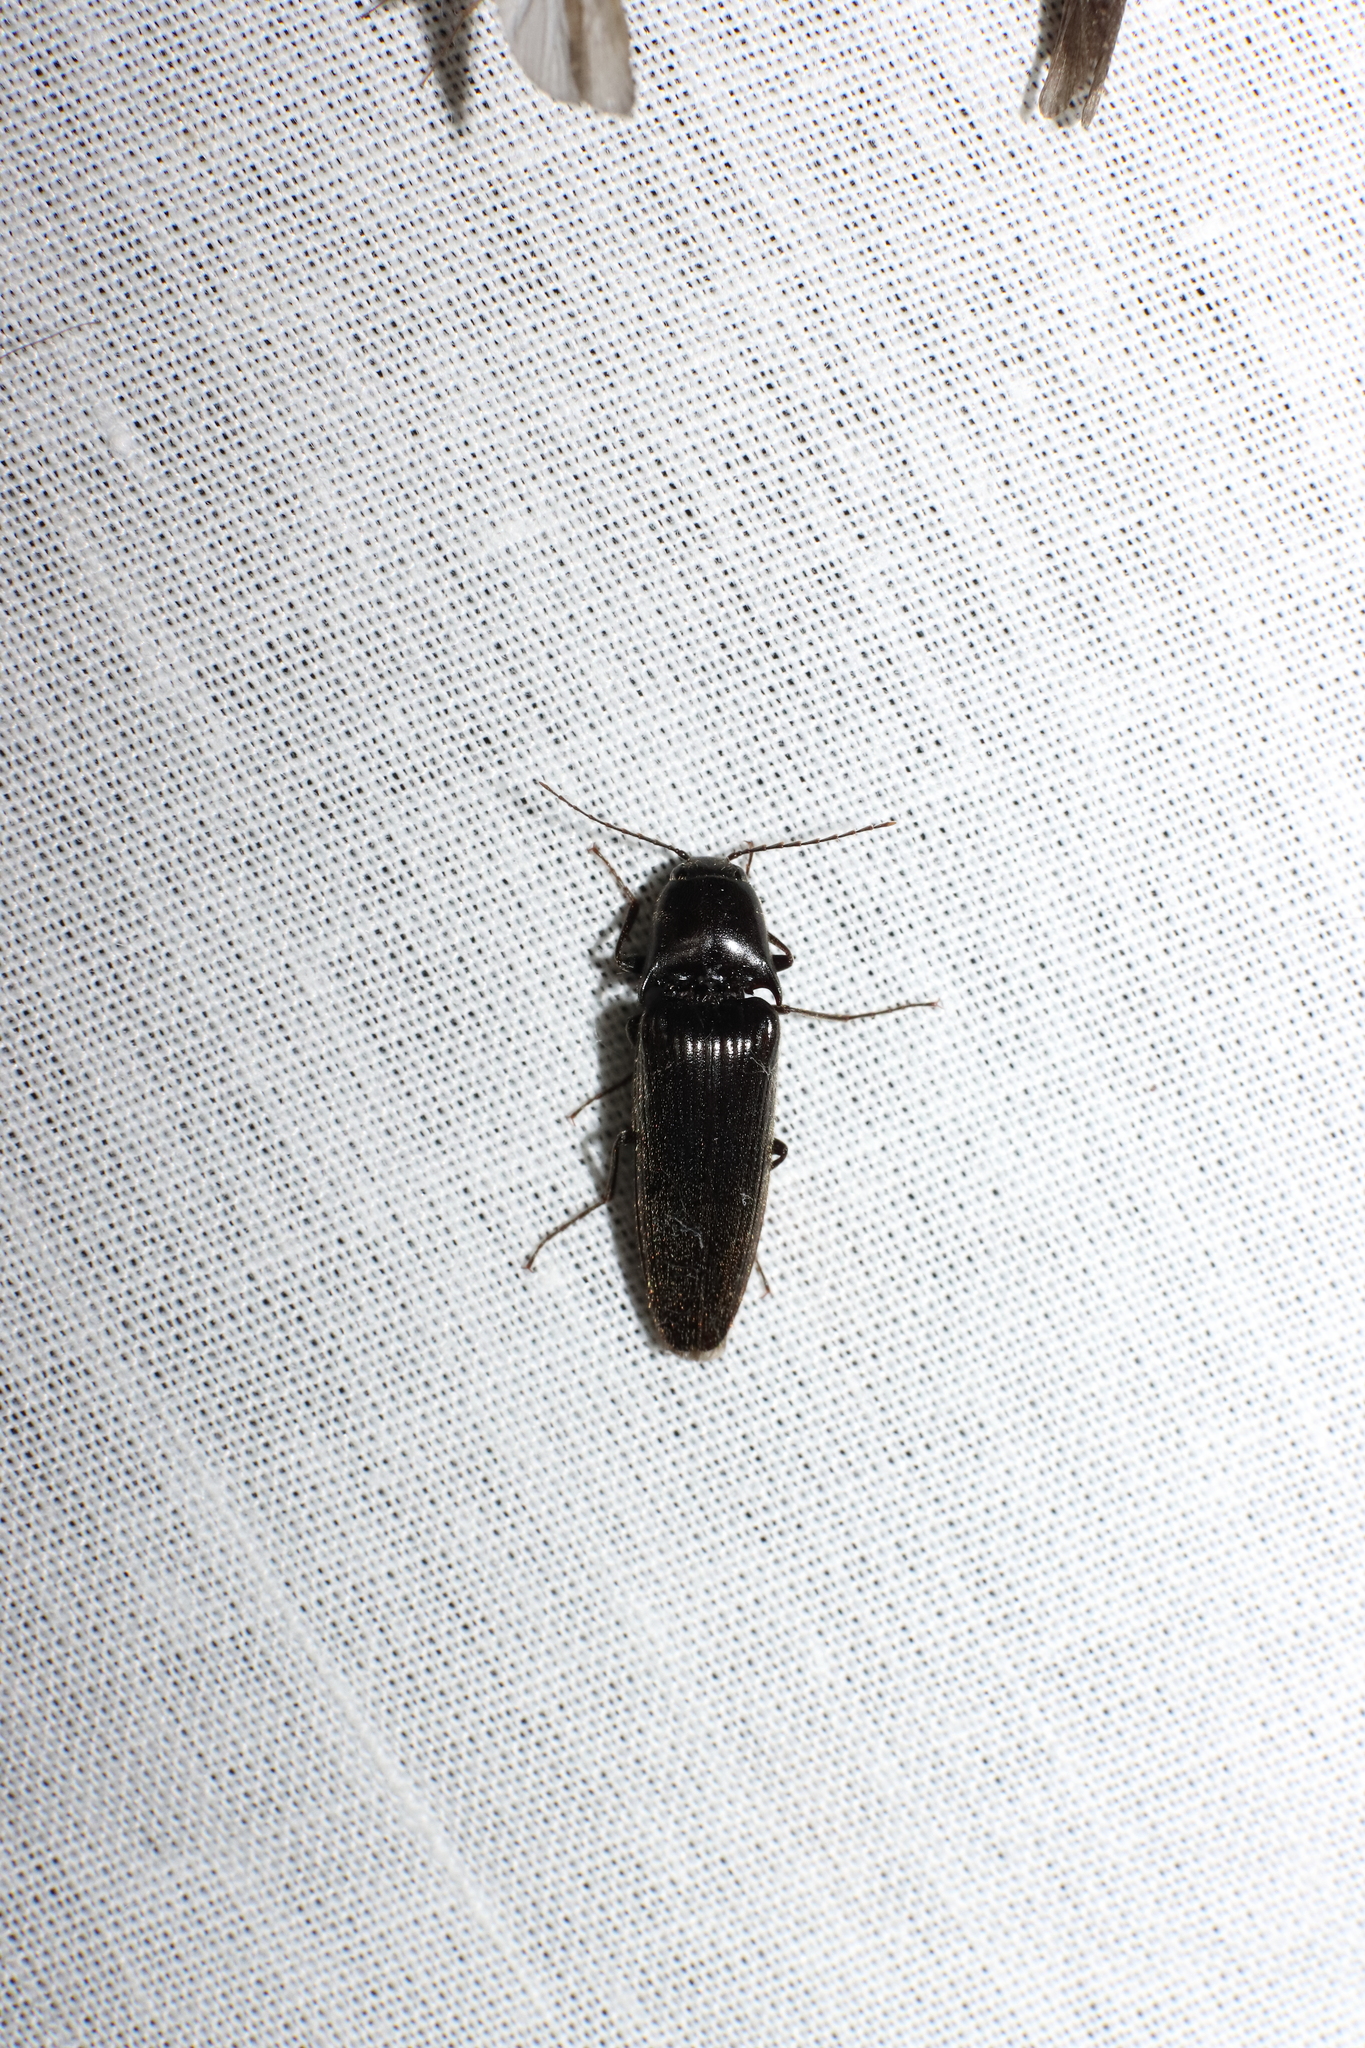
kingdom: Animalia
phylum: Arthropoda
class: Insecta
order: Coleoptera
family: Elateridae
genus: Ochosternus
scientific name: Ochosternus zealandicus
